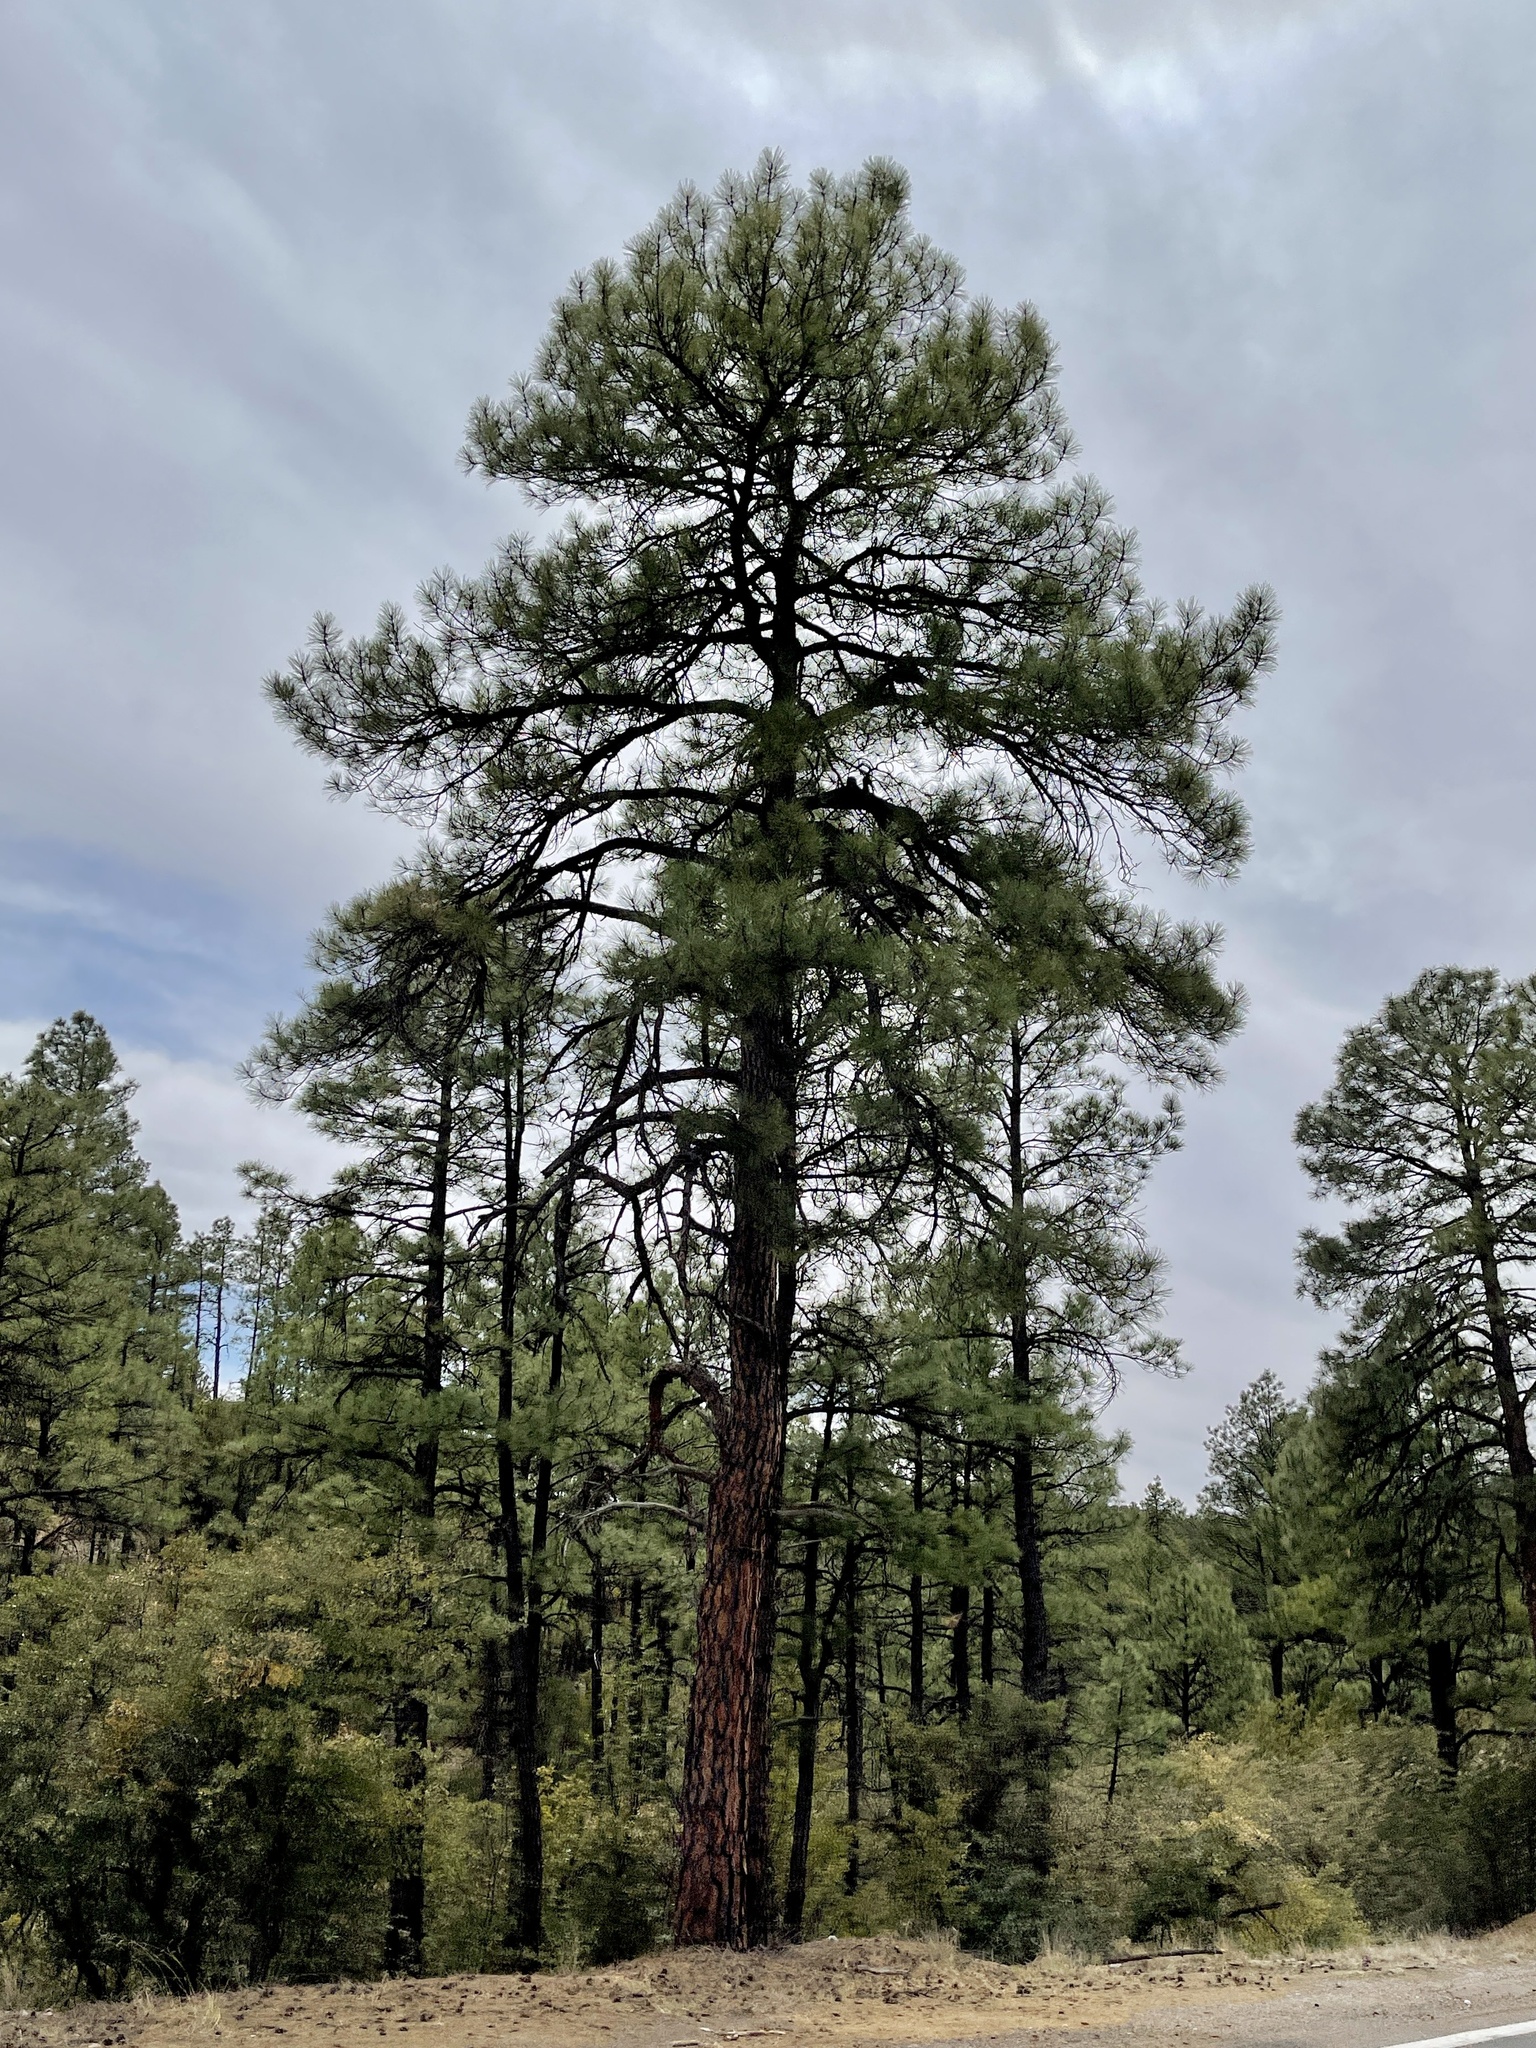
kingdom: Plantae
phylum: Tracheophyta
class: Pinopsida
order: Pinales
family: Pinaceae
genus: Pinus
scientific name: Pinus ponderosa
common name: Western yellow-pine
